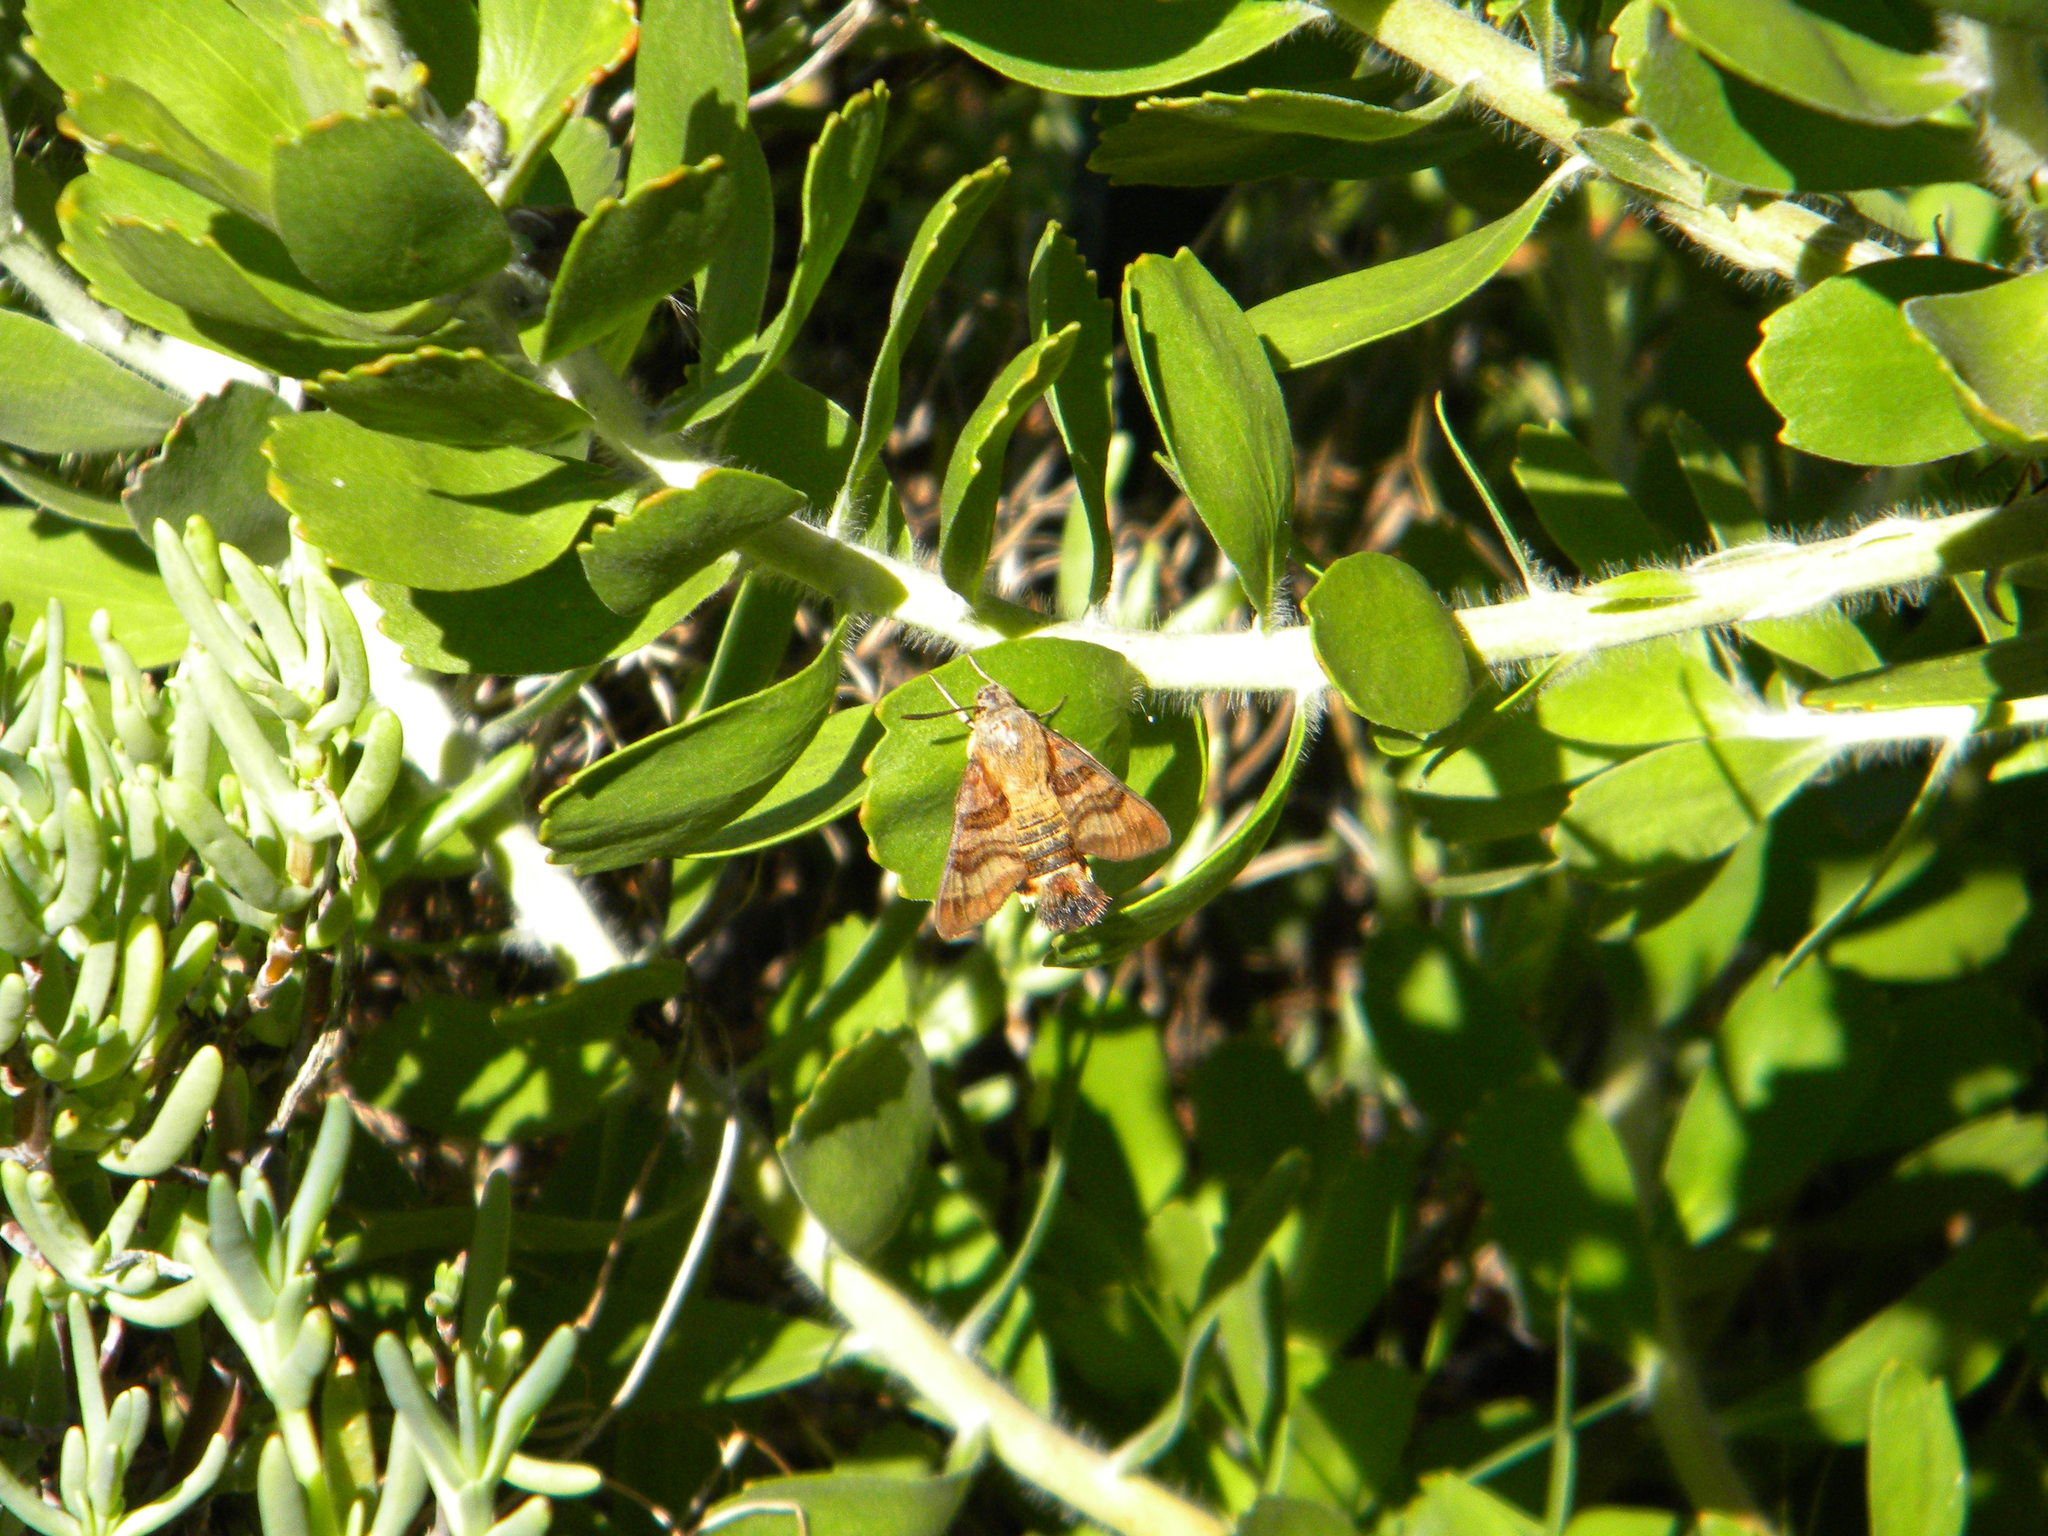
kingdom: Animalia
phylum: Arthropoda
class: Insecta
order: Lepidoptera
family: Sphingidae
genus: Macroglossum
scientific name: Macroglossum trochilus
